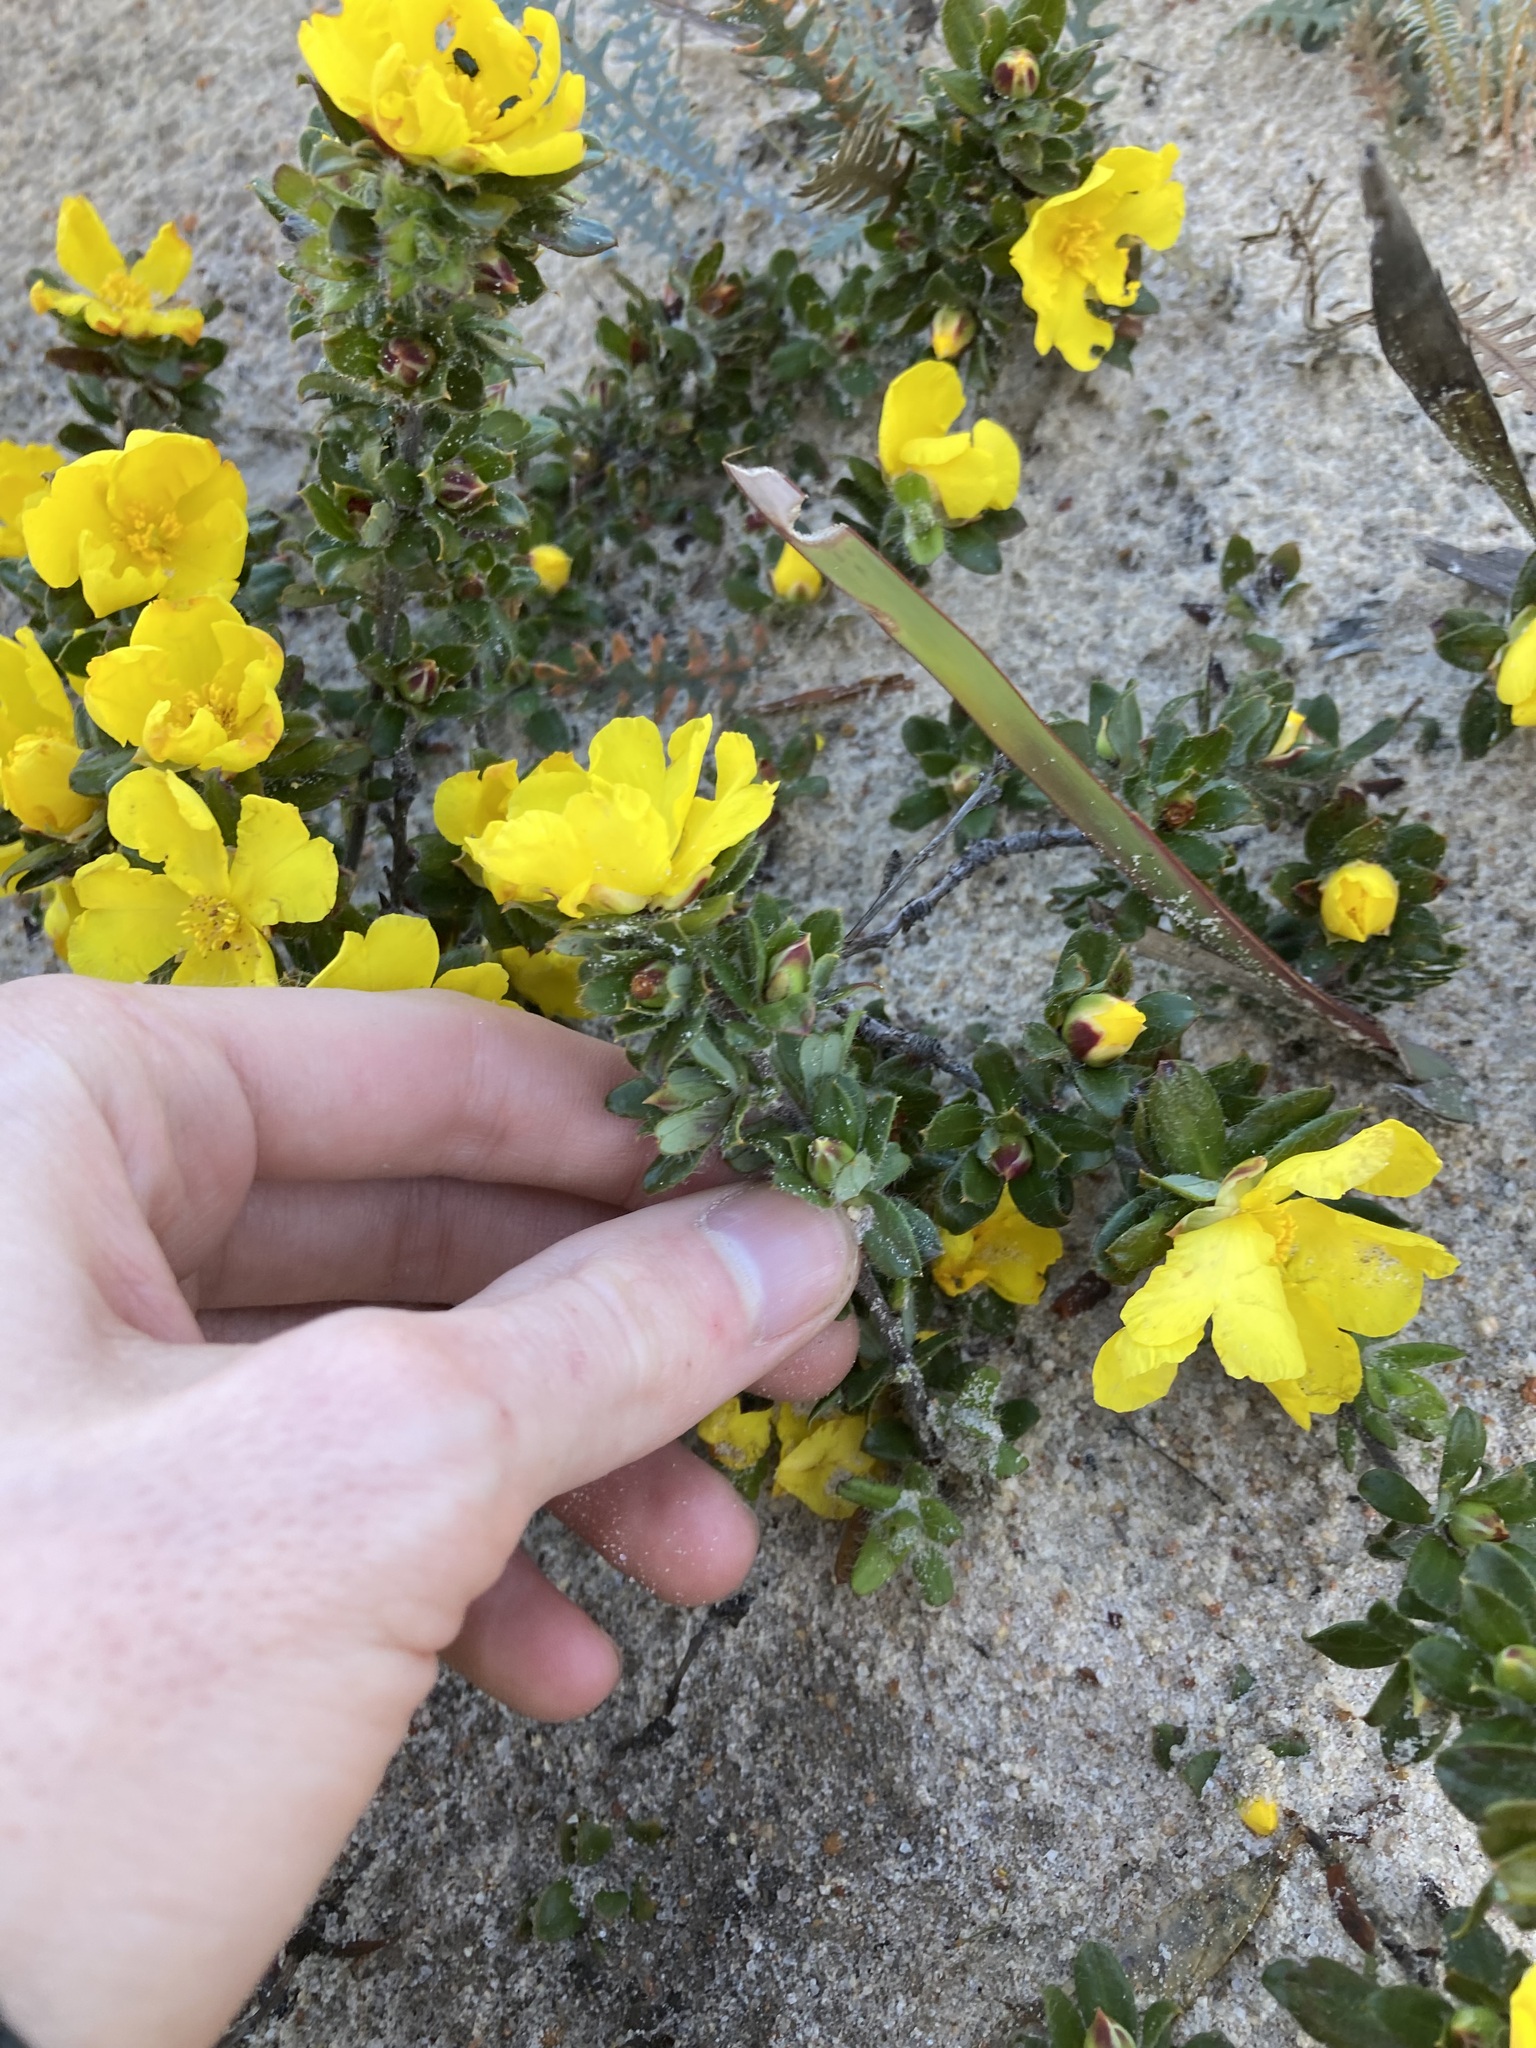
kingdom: Plantae
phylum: Tracheophyta
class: Magnoliopsida
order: Dilleniales
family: Dilleniaceae
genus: Hibbertia
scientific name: Hibbertia mylnei
